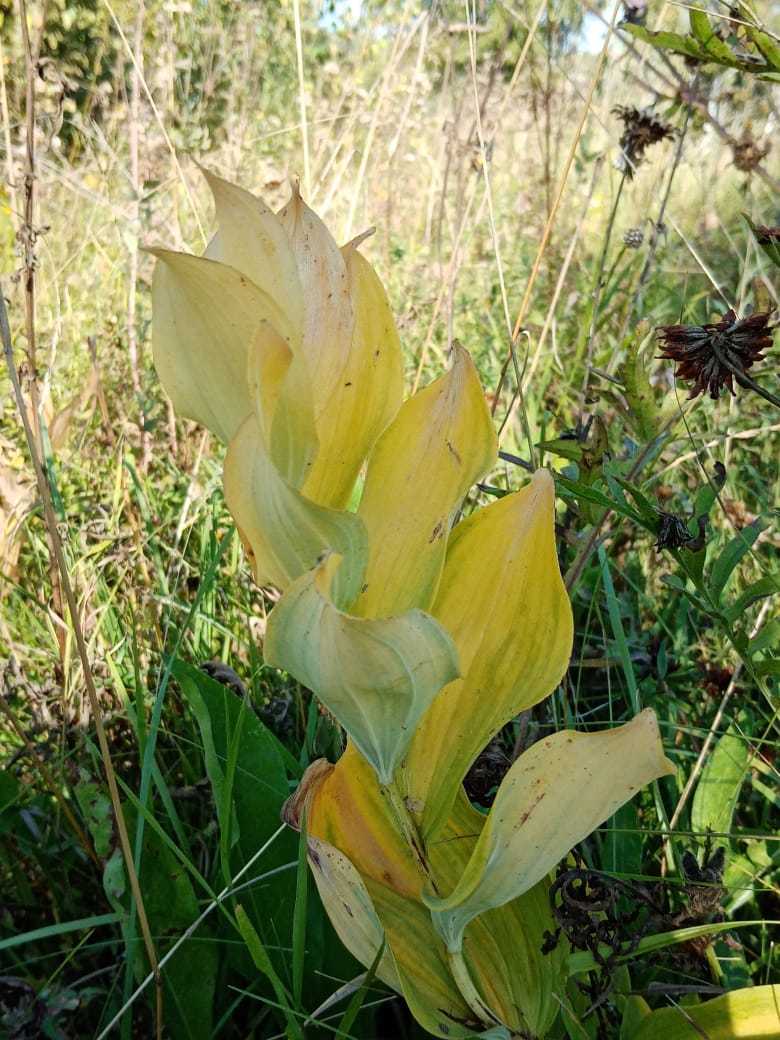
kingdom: Plantae
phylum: Tracheophyta
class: Liliopsida
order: Asparagales
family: Asparagaceae
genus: Polygonatum
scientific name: Polygonatum odoratum
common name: Angular solomon's-seal
